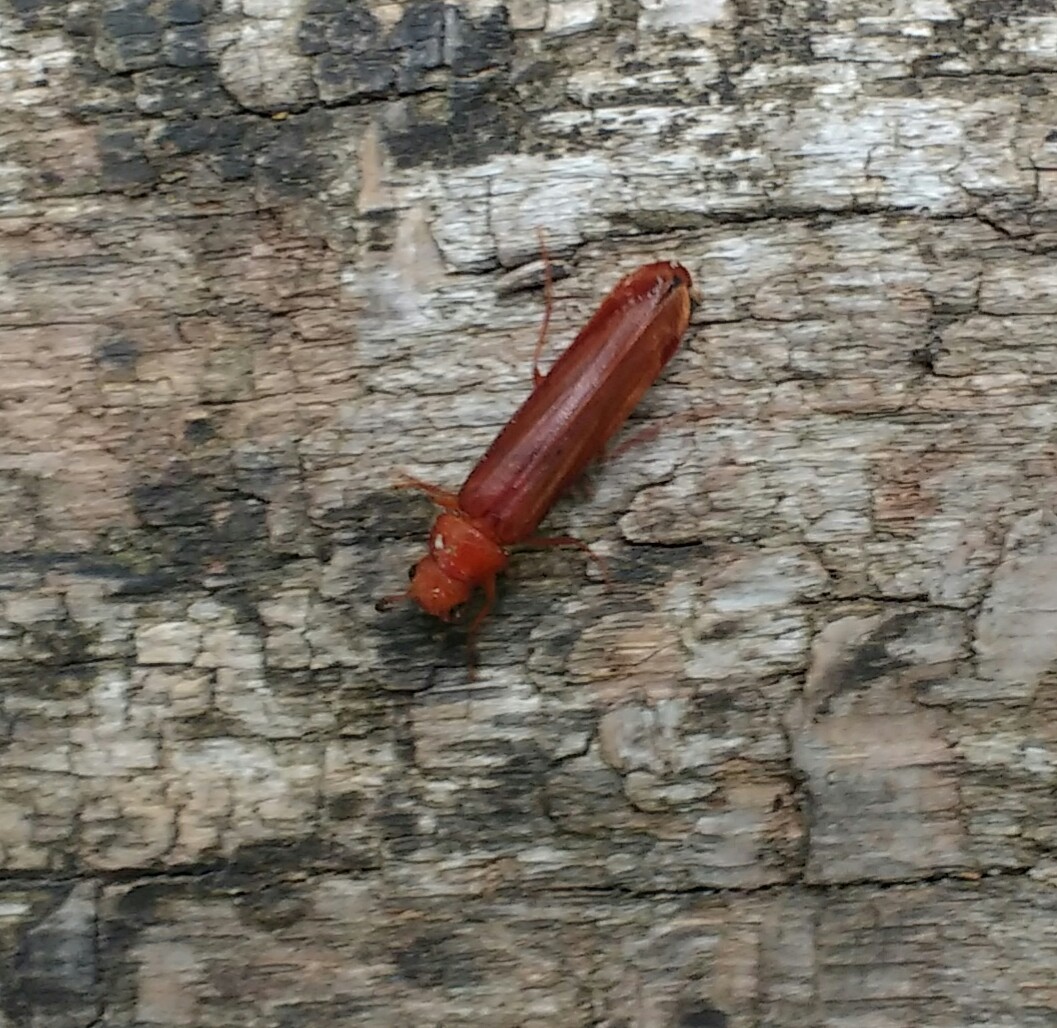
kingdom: Animalia
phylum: Arthropoda
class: Insecta
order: Coleoptera
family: Lymexylidae
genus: Hylecoetus
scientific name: Hylecoetus dermestoides
